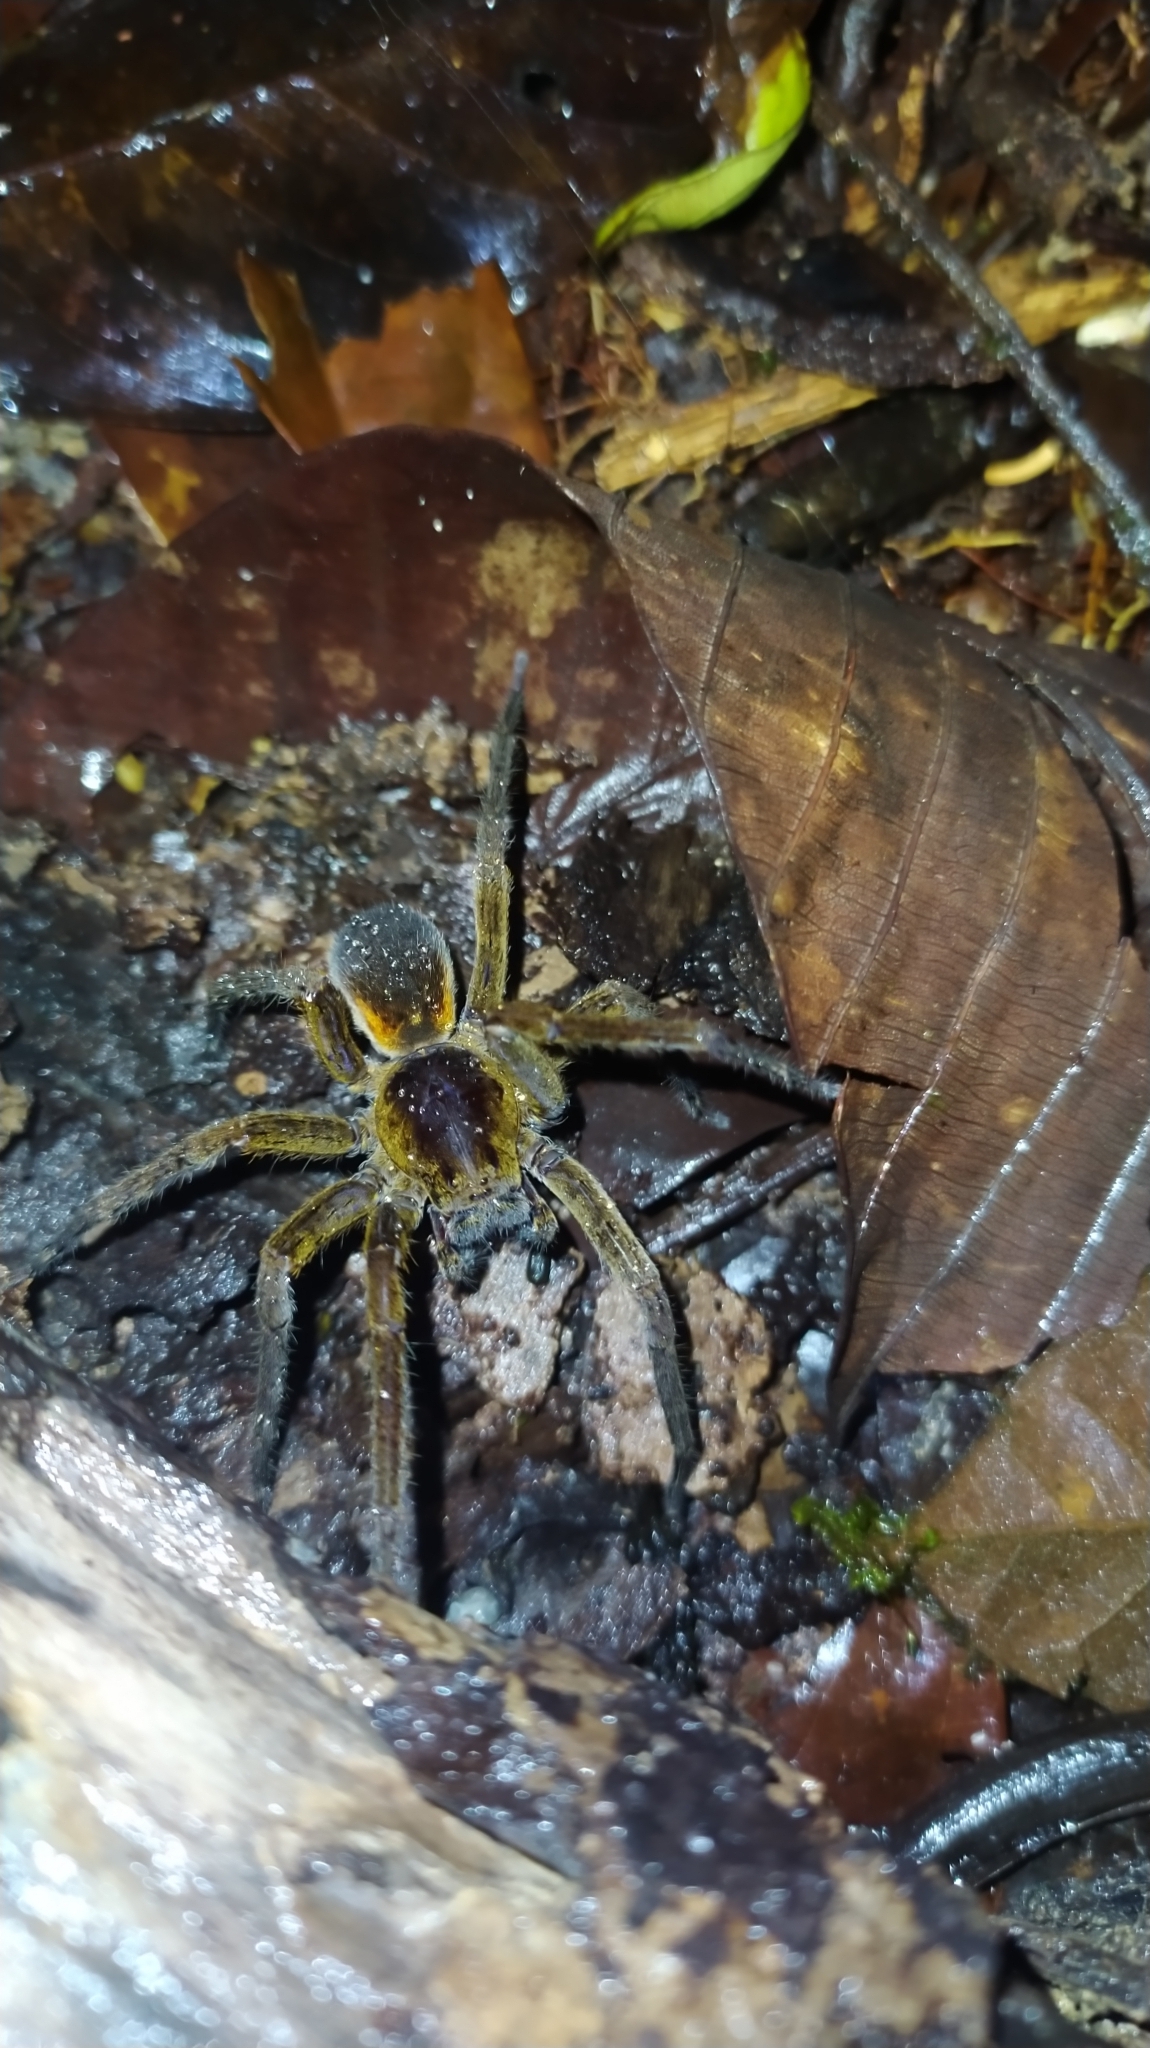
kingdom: Animalia
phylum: Arthropoda
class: Arachnida
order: Araneae
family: Ctenidae
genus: Ctenus
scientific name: Ctenus villasboasi
